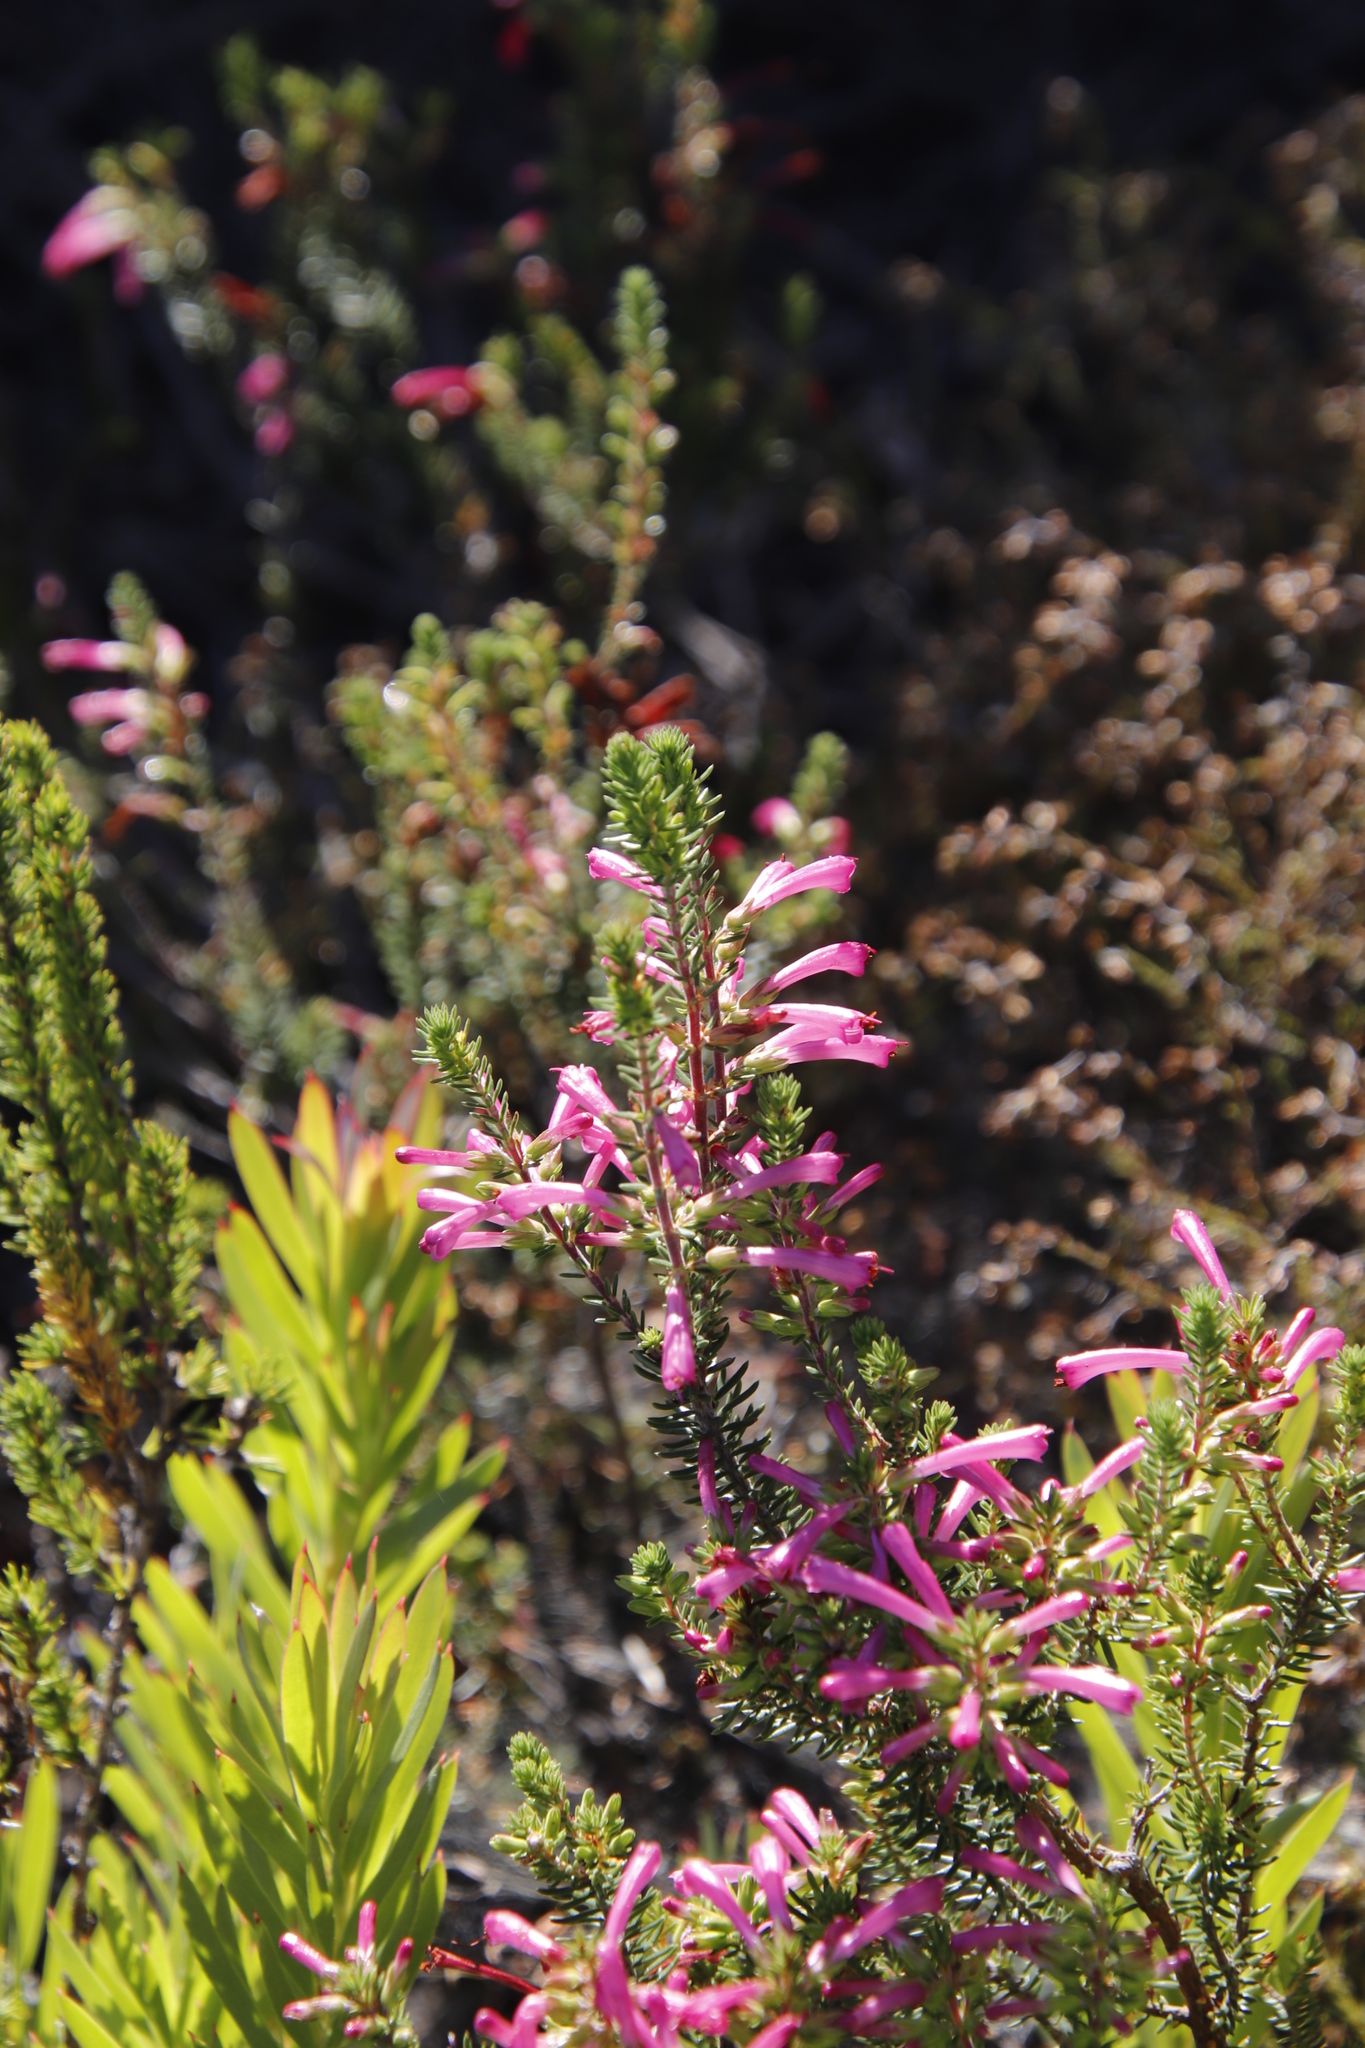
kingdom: Plantae
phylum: Tracheophyta
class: Magnoliopsida
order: Ericales
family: Ericaceae
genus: Erica
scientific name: Erica abietina
